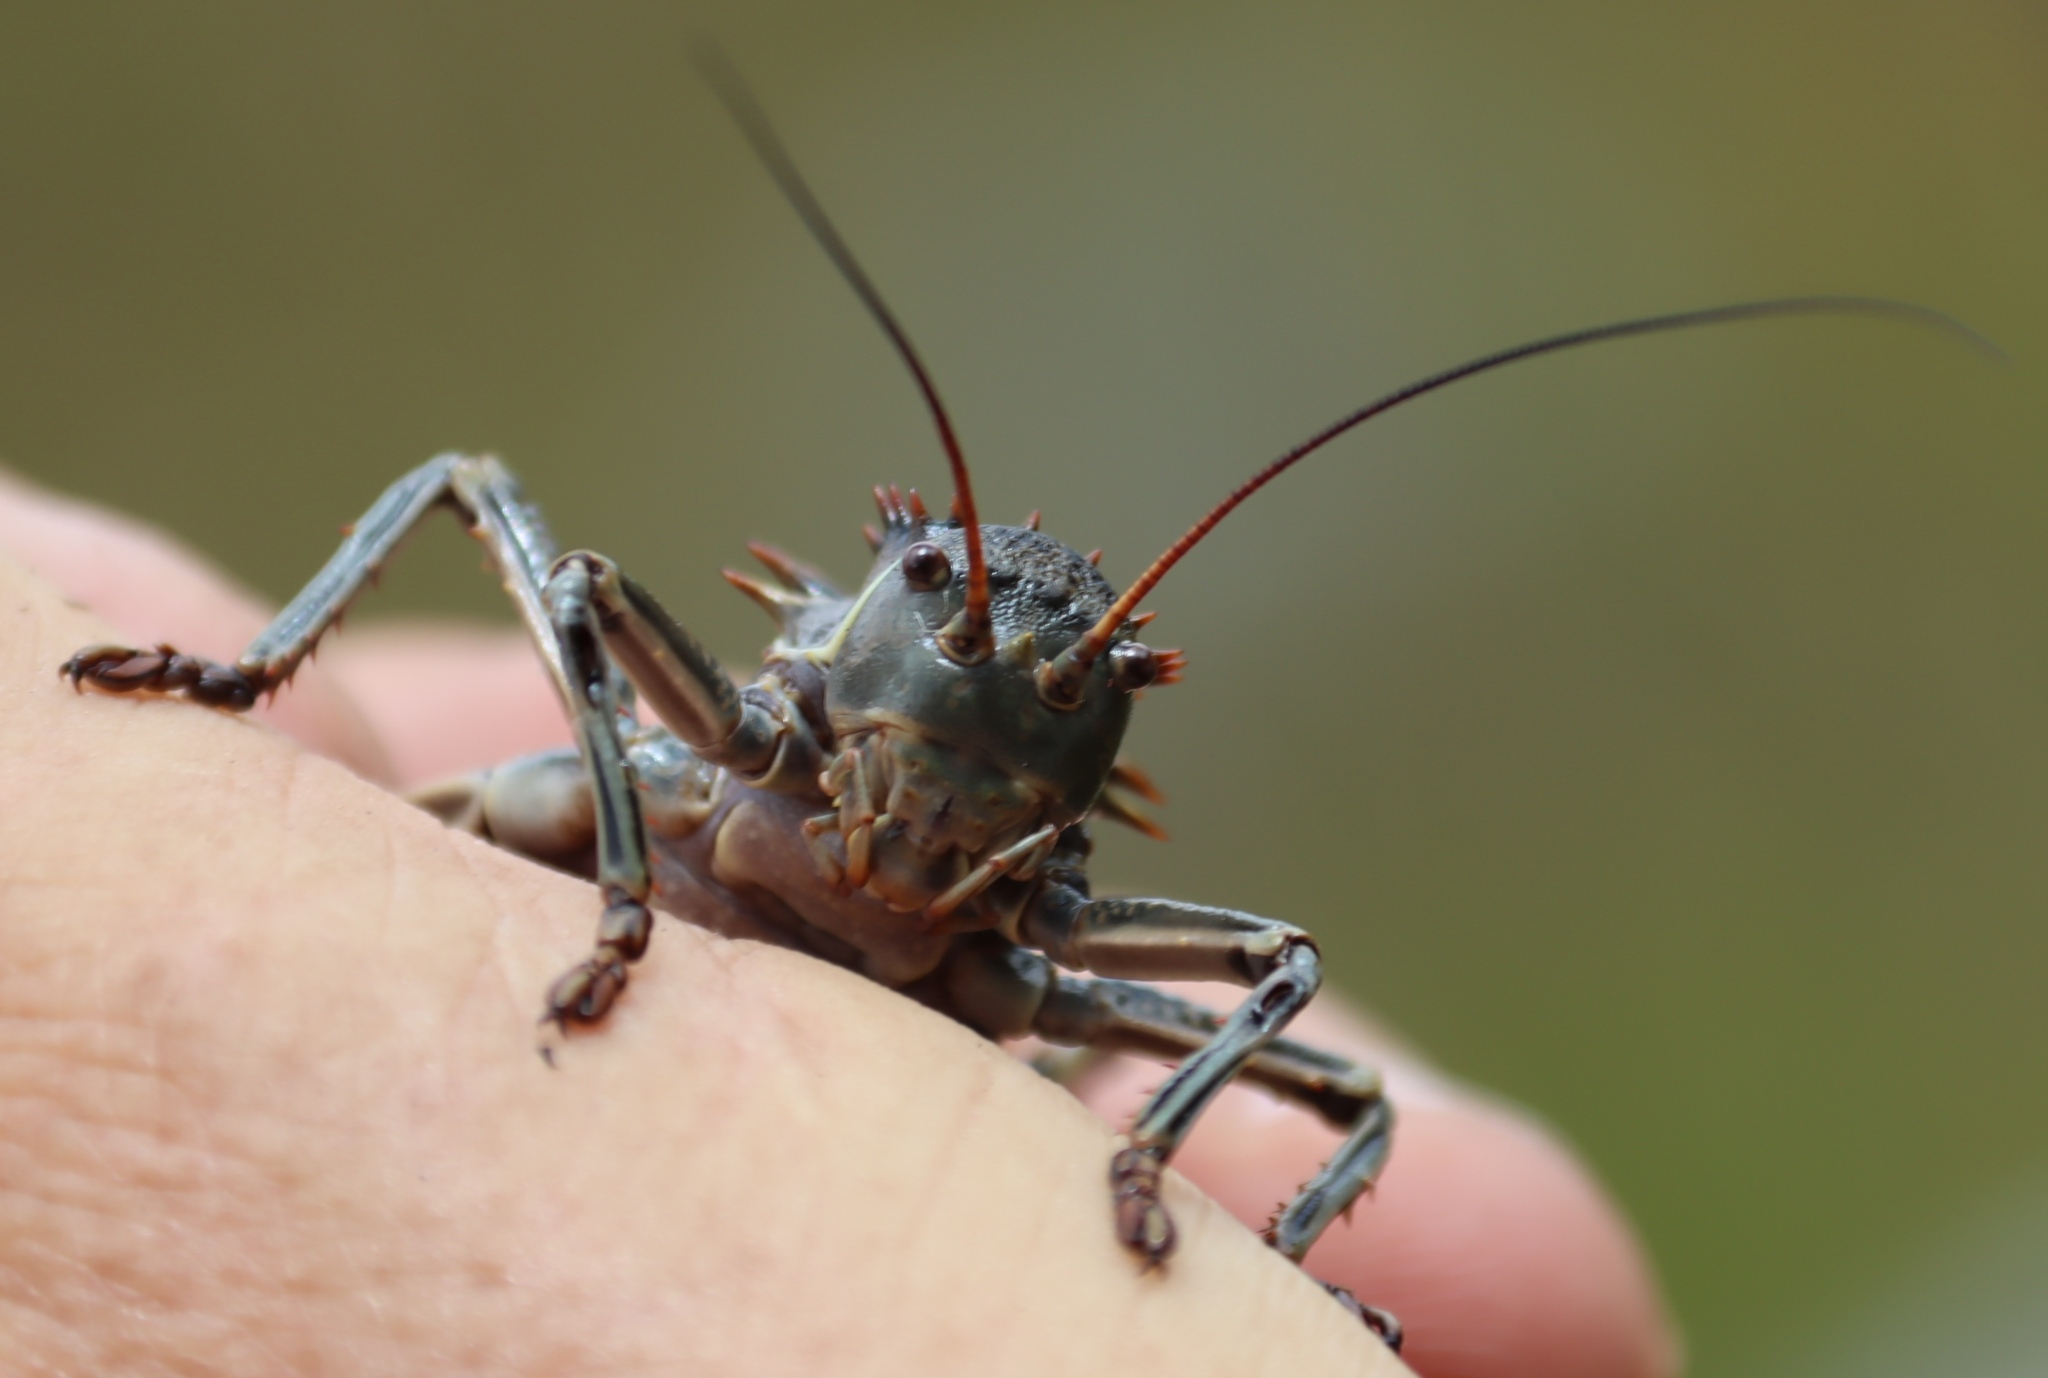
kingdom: Animalia
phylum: Arthropoda
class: Insecta
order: Orthoptera
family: Tettigoniidae
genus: Hetrodes
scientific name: Hetrodes pupus
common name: Koringkriek
